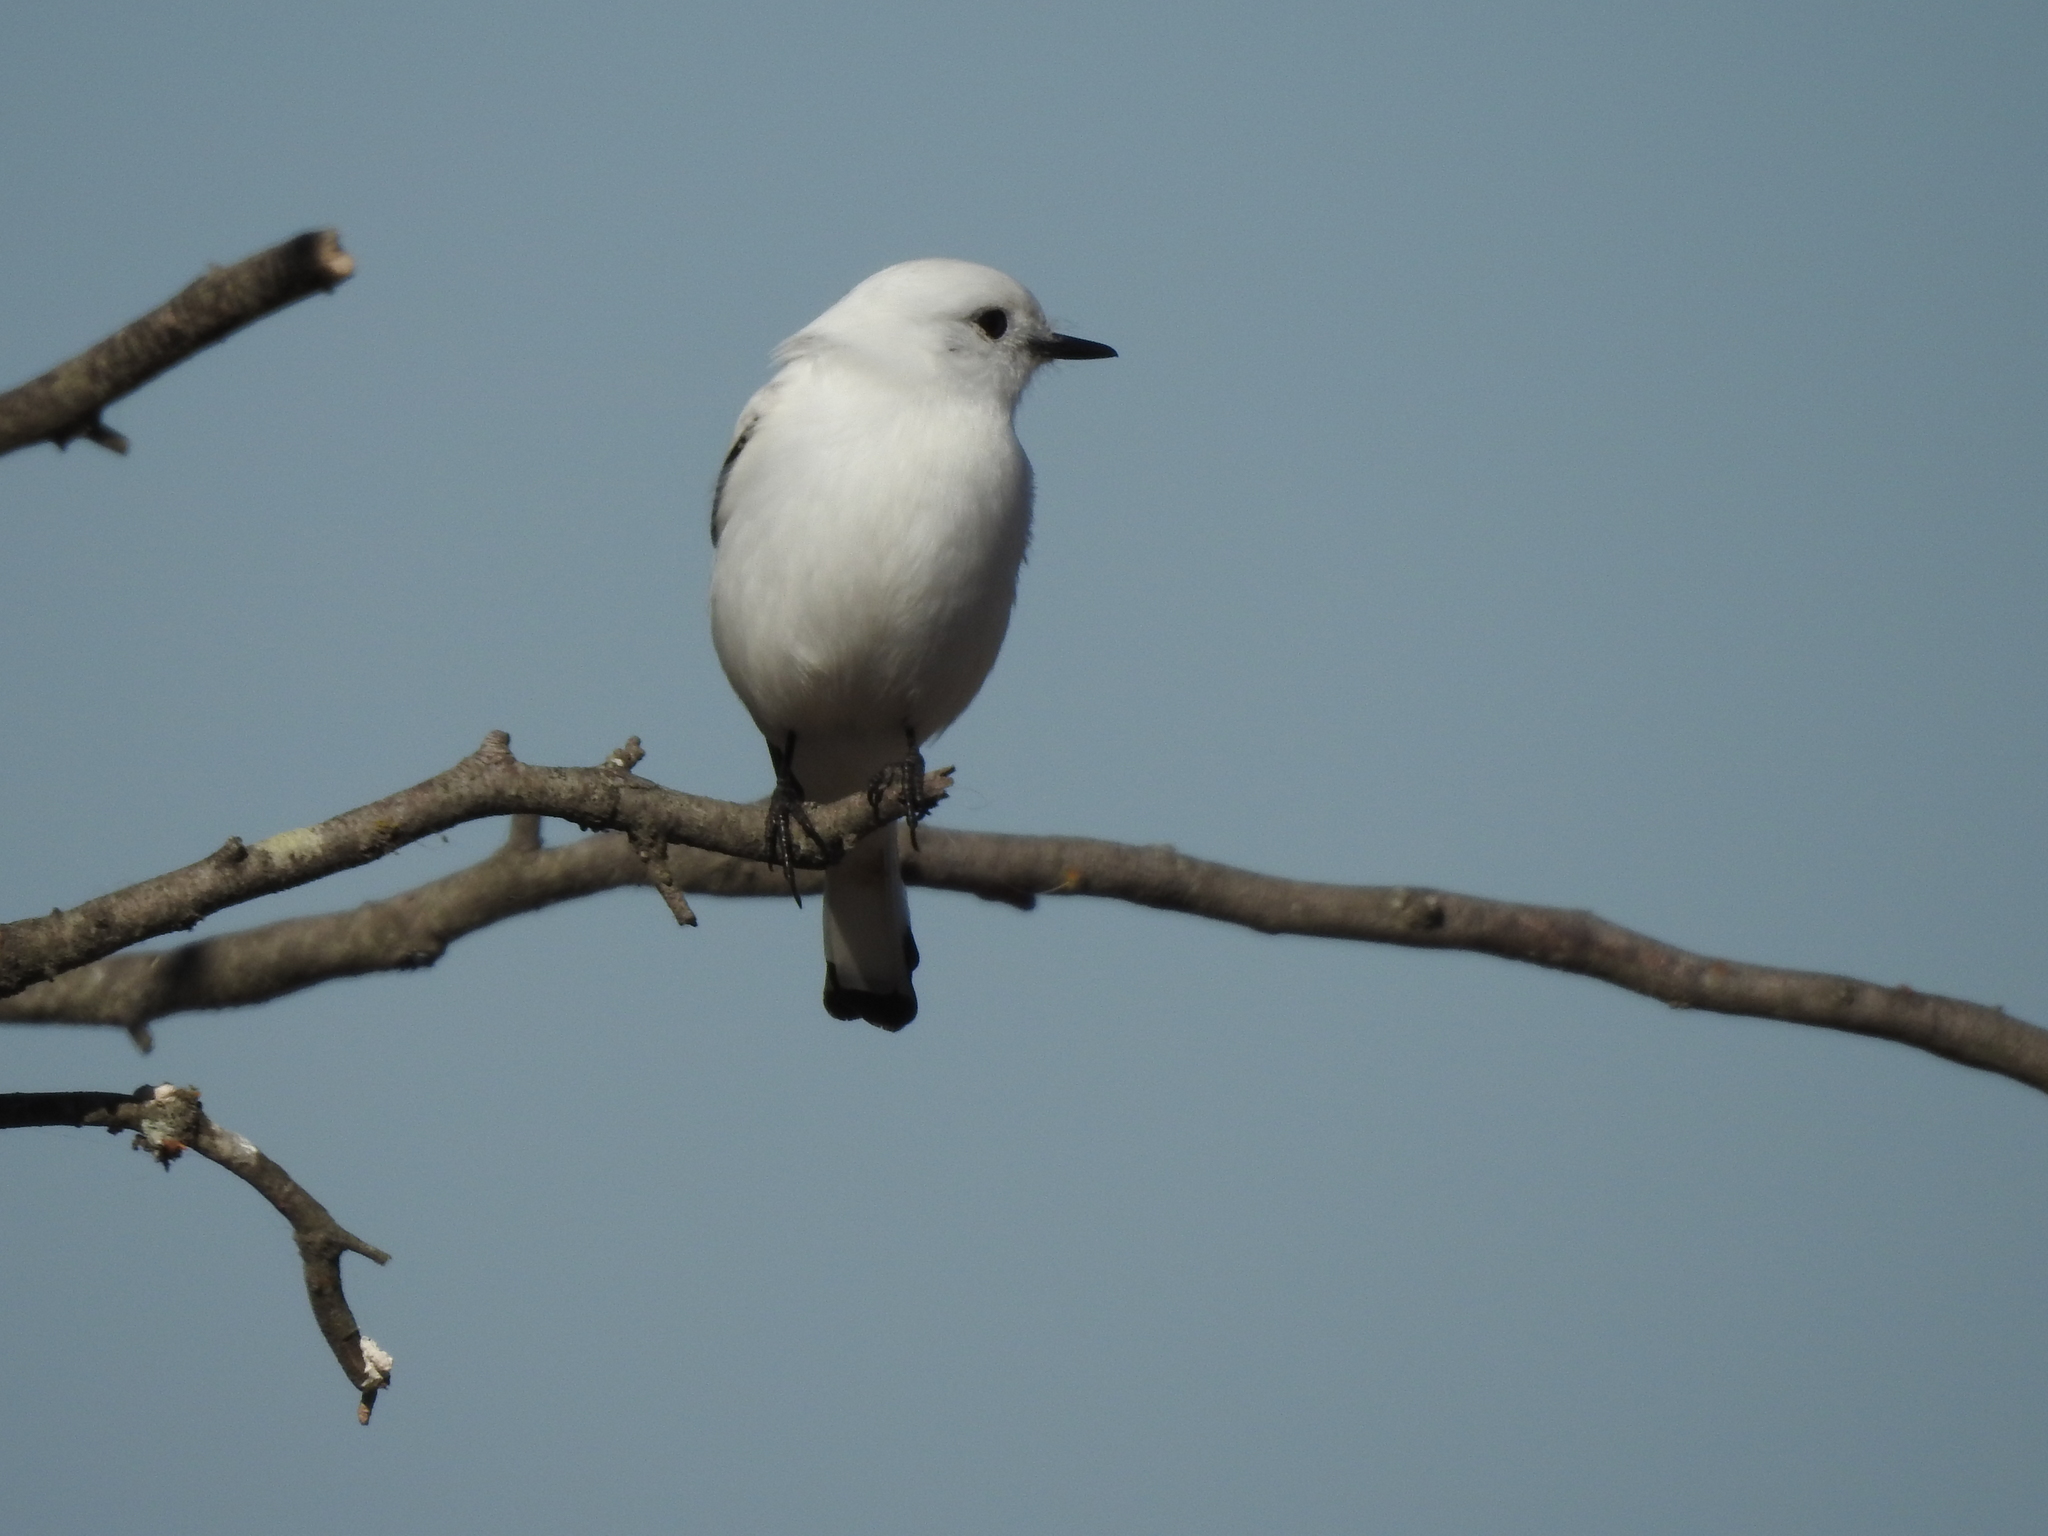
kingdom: Animalia
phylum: Chordata
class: Aves
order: Passeriformes
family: Tyrannidae
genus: Xolmis
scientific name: Xolmis irupero
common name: White monjita
